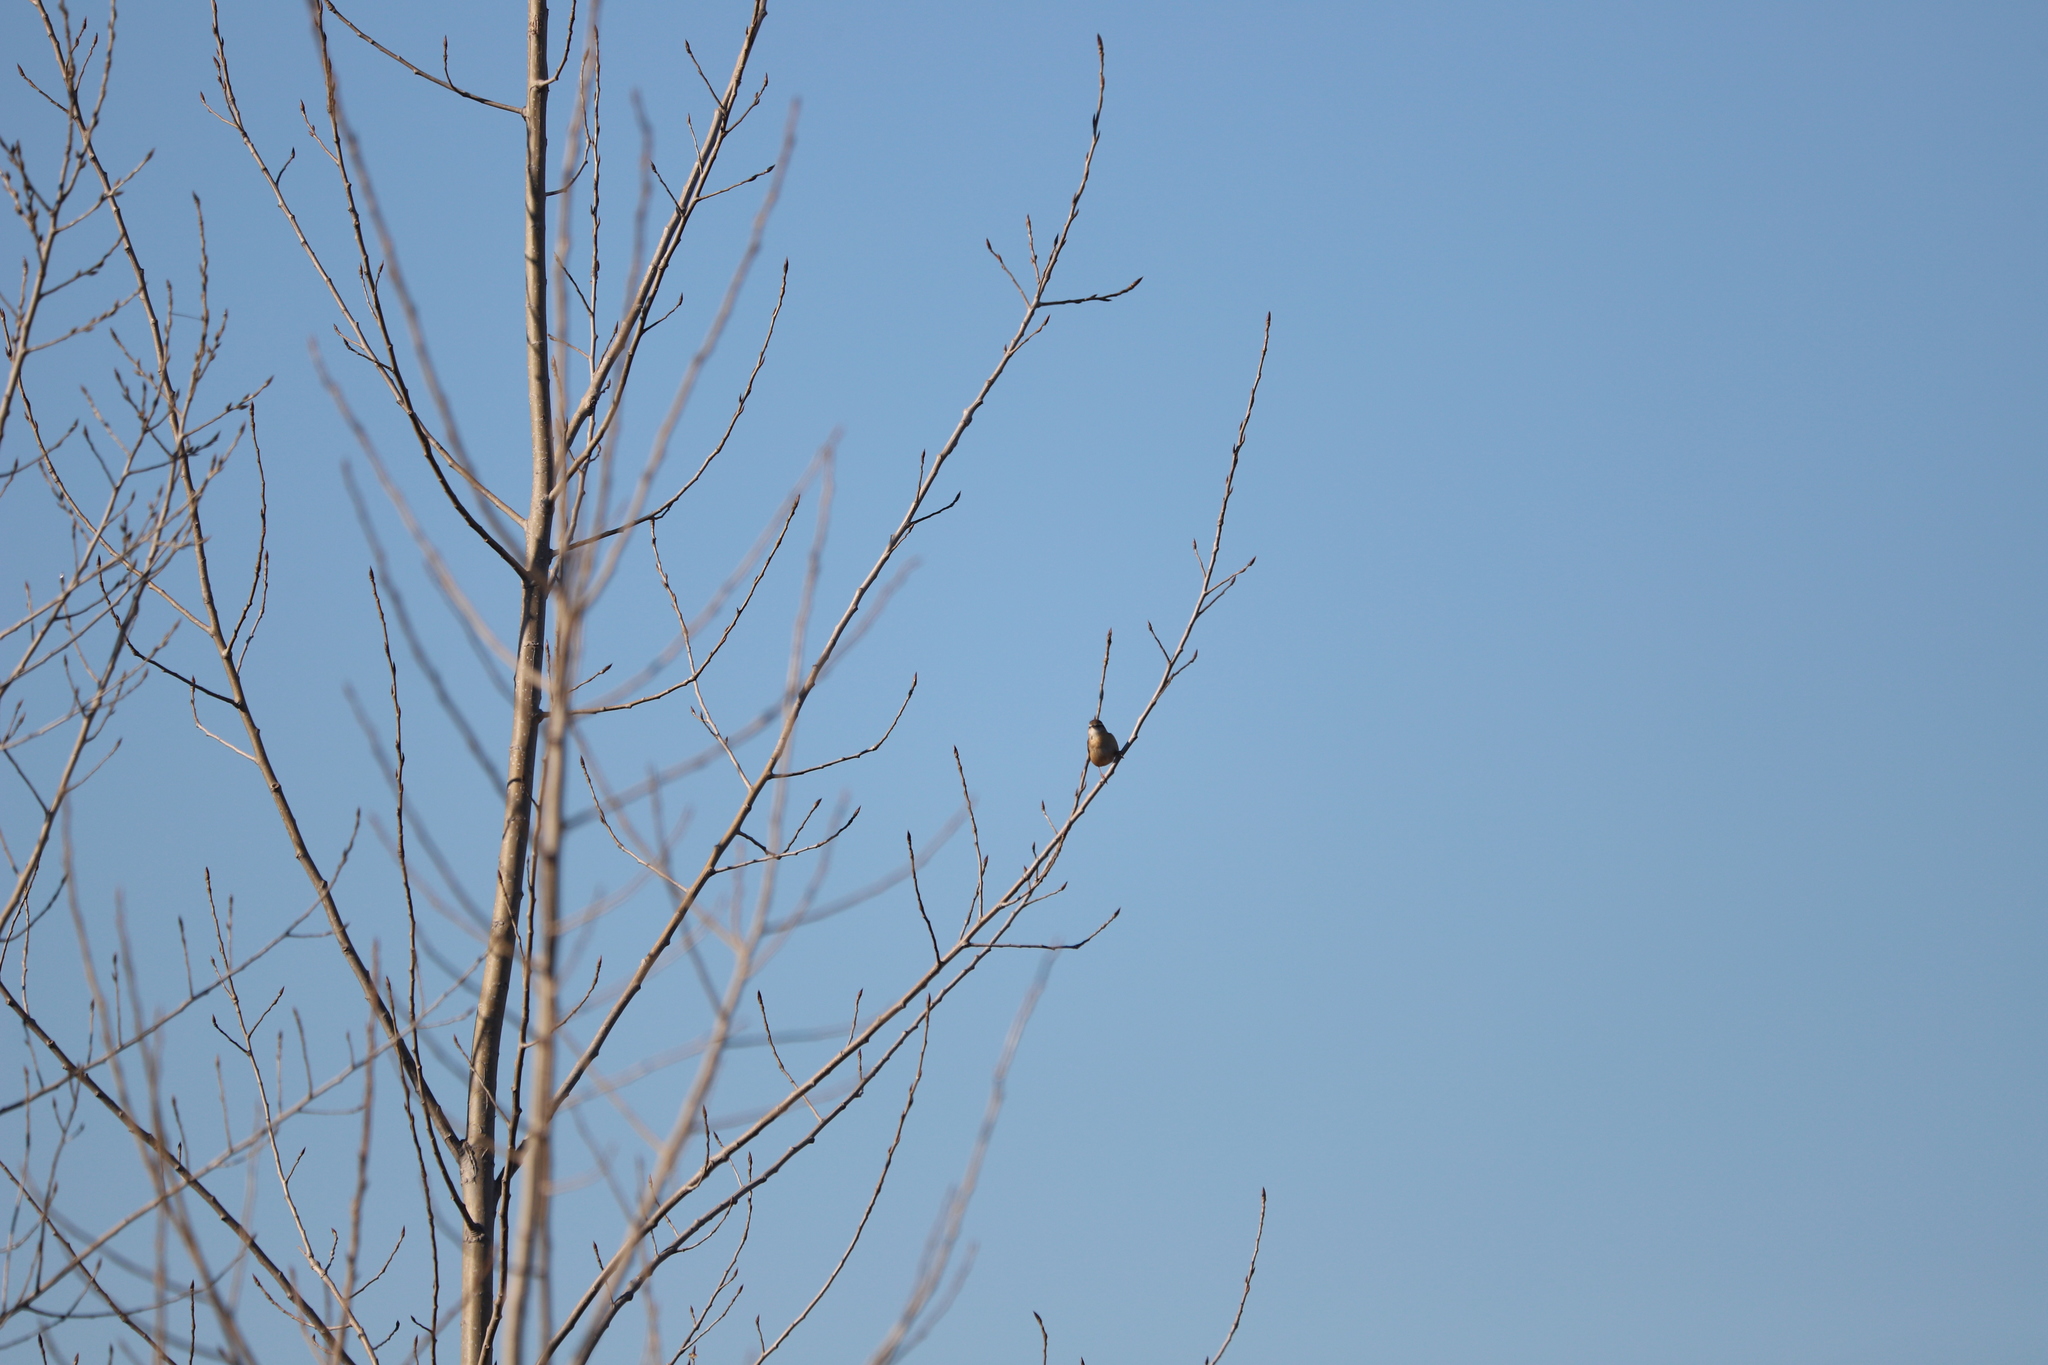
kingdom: Animalia
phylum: Chordata
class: Aves
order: Passeriformes
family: Troglodytidae
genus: Thryothorus
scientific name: Thryothorus ludovicianus
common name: Carolina wren
